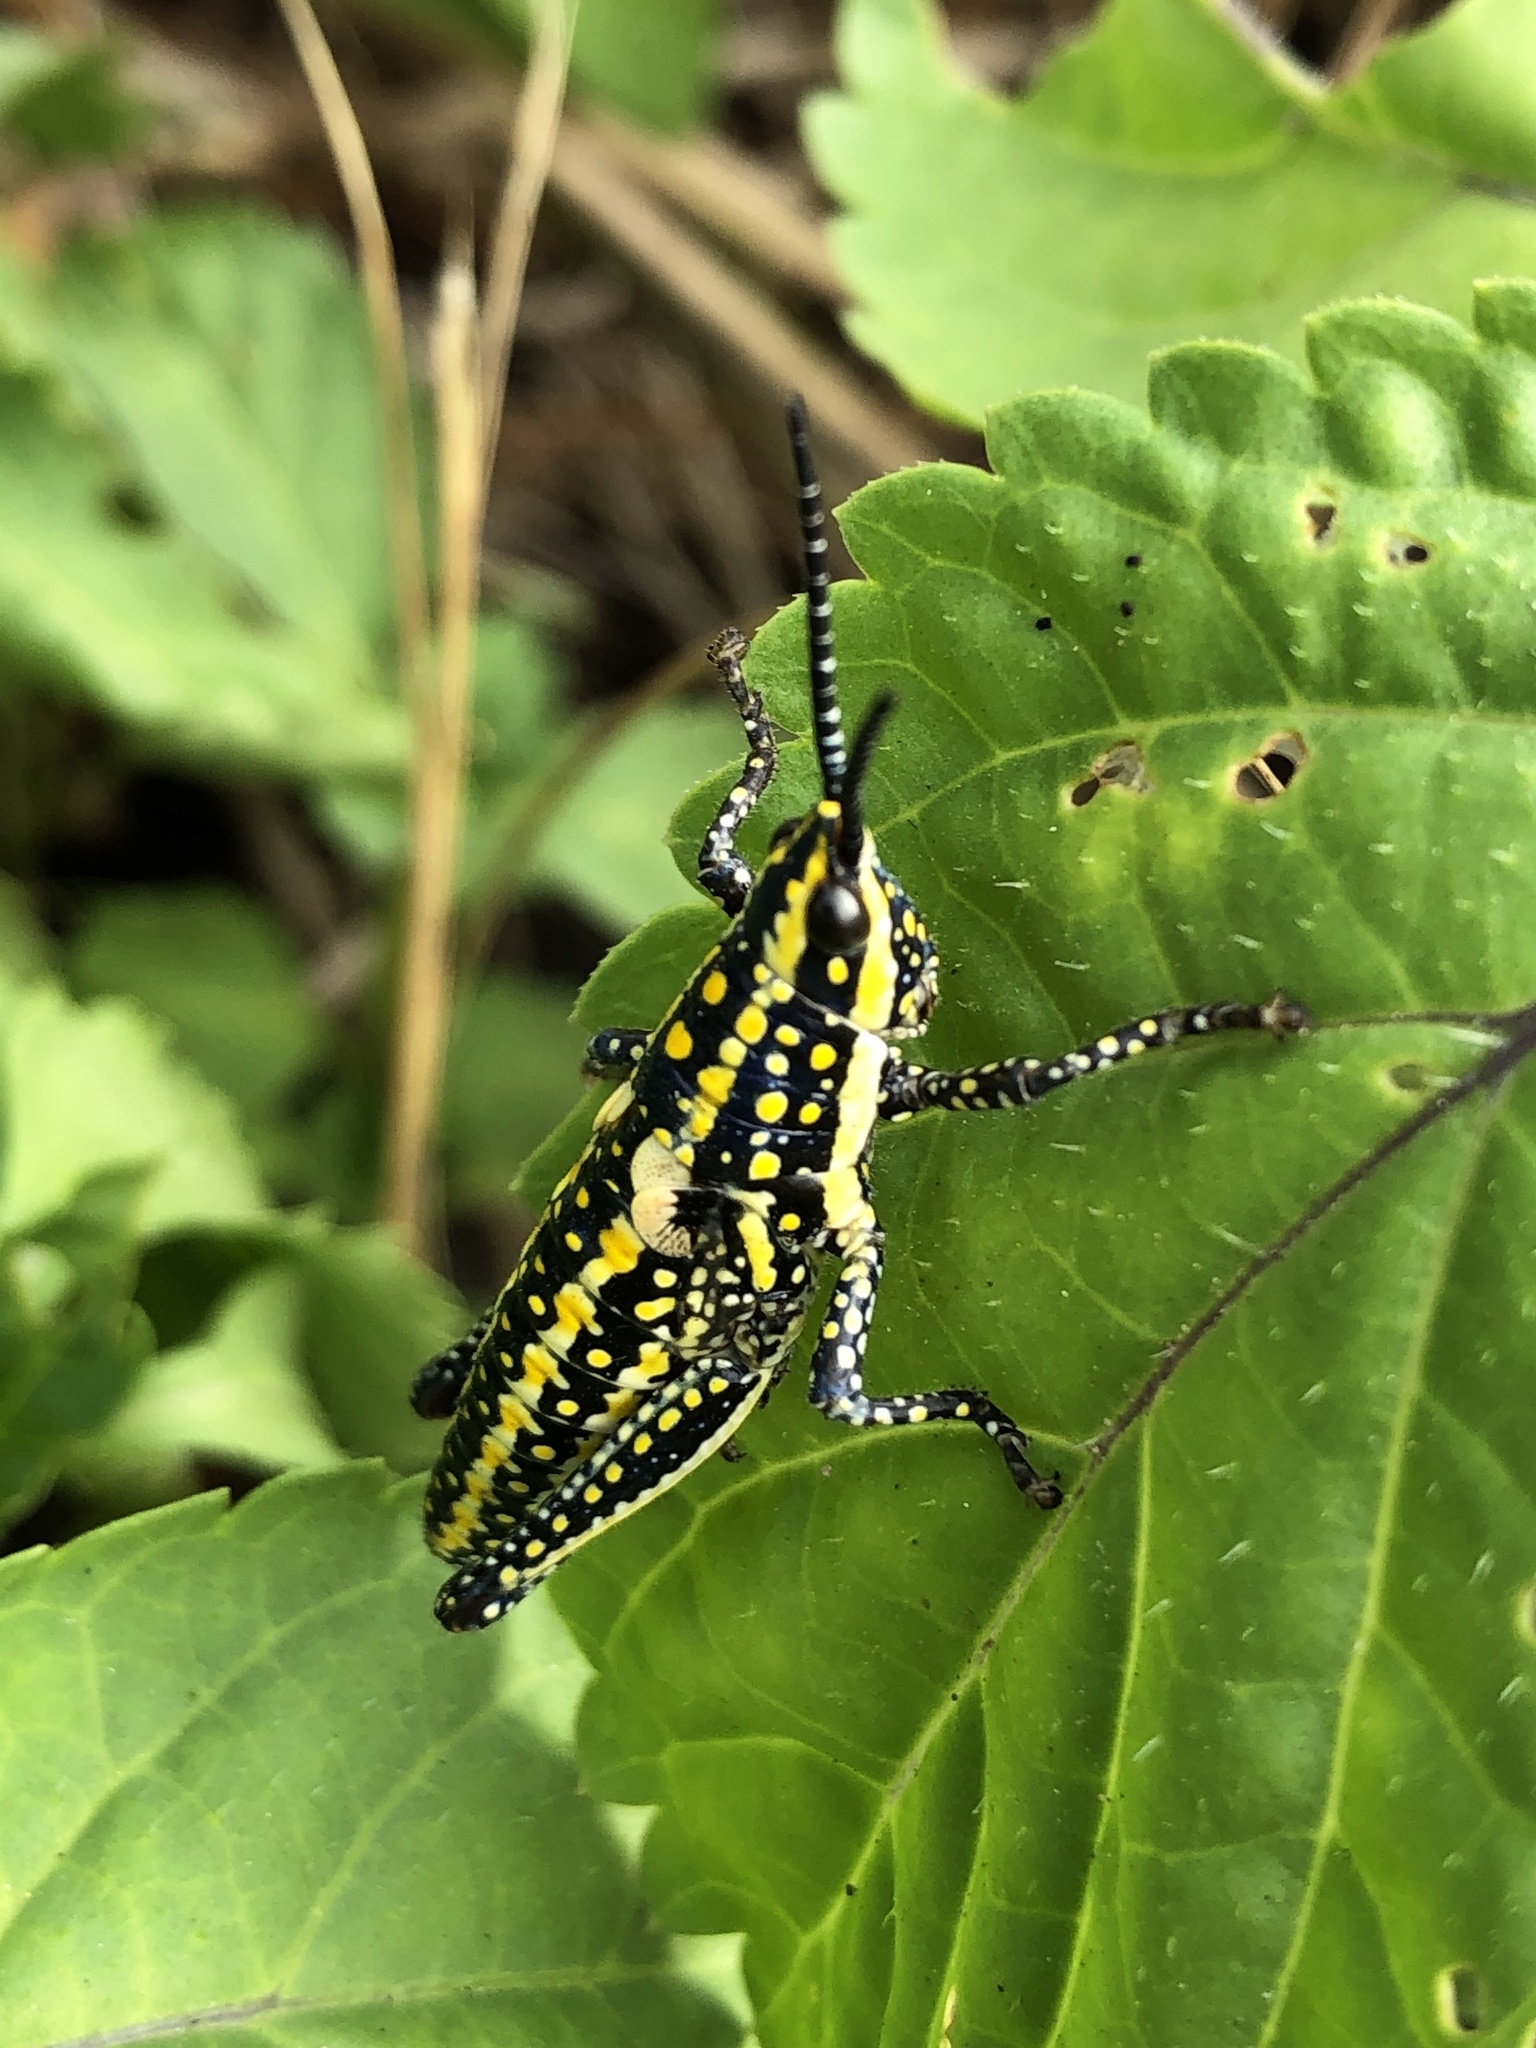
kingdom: Animalia
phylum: Arthropoda
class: Insecta
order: Orthoptera
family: Pyrgomorphidae
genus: Greyacris
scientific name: Greyacris profundesulcata
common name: Queensland spotted pyrgomorph
